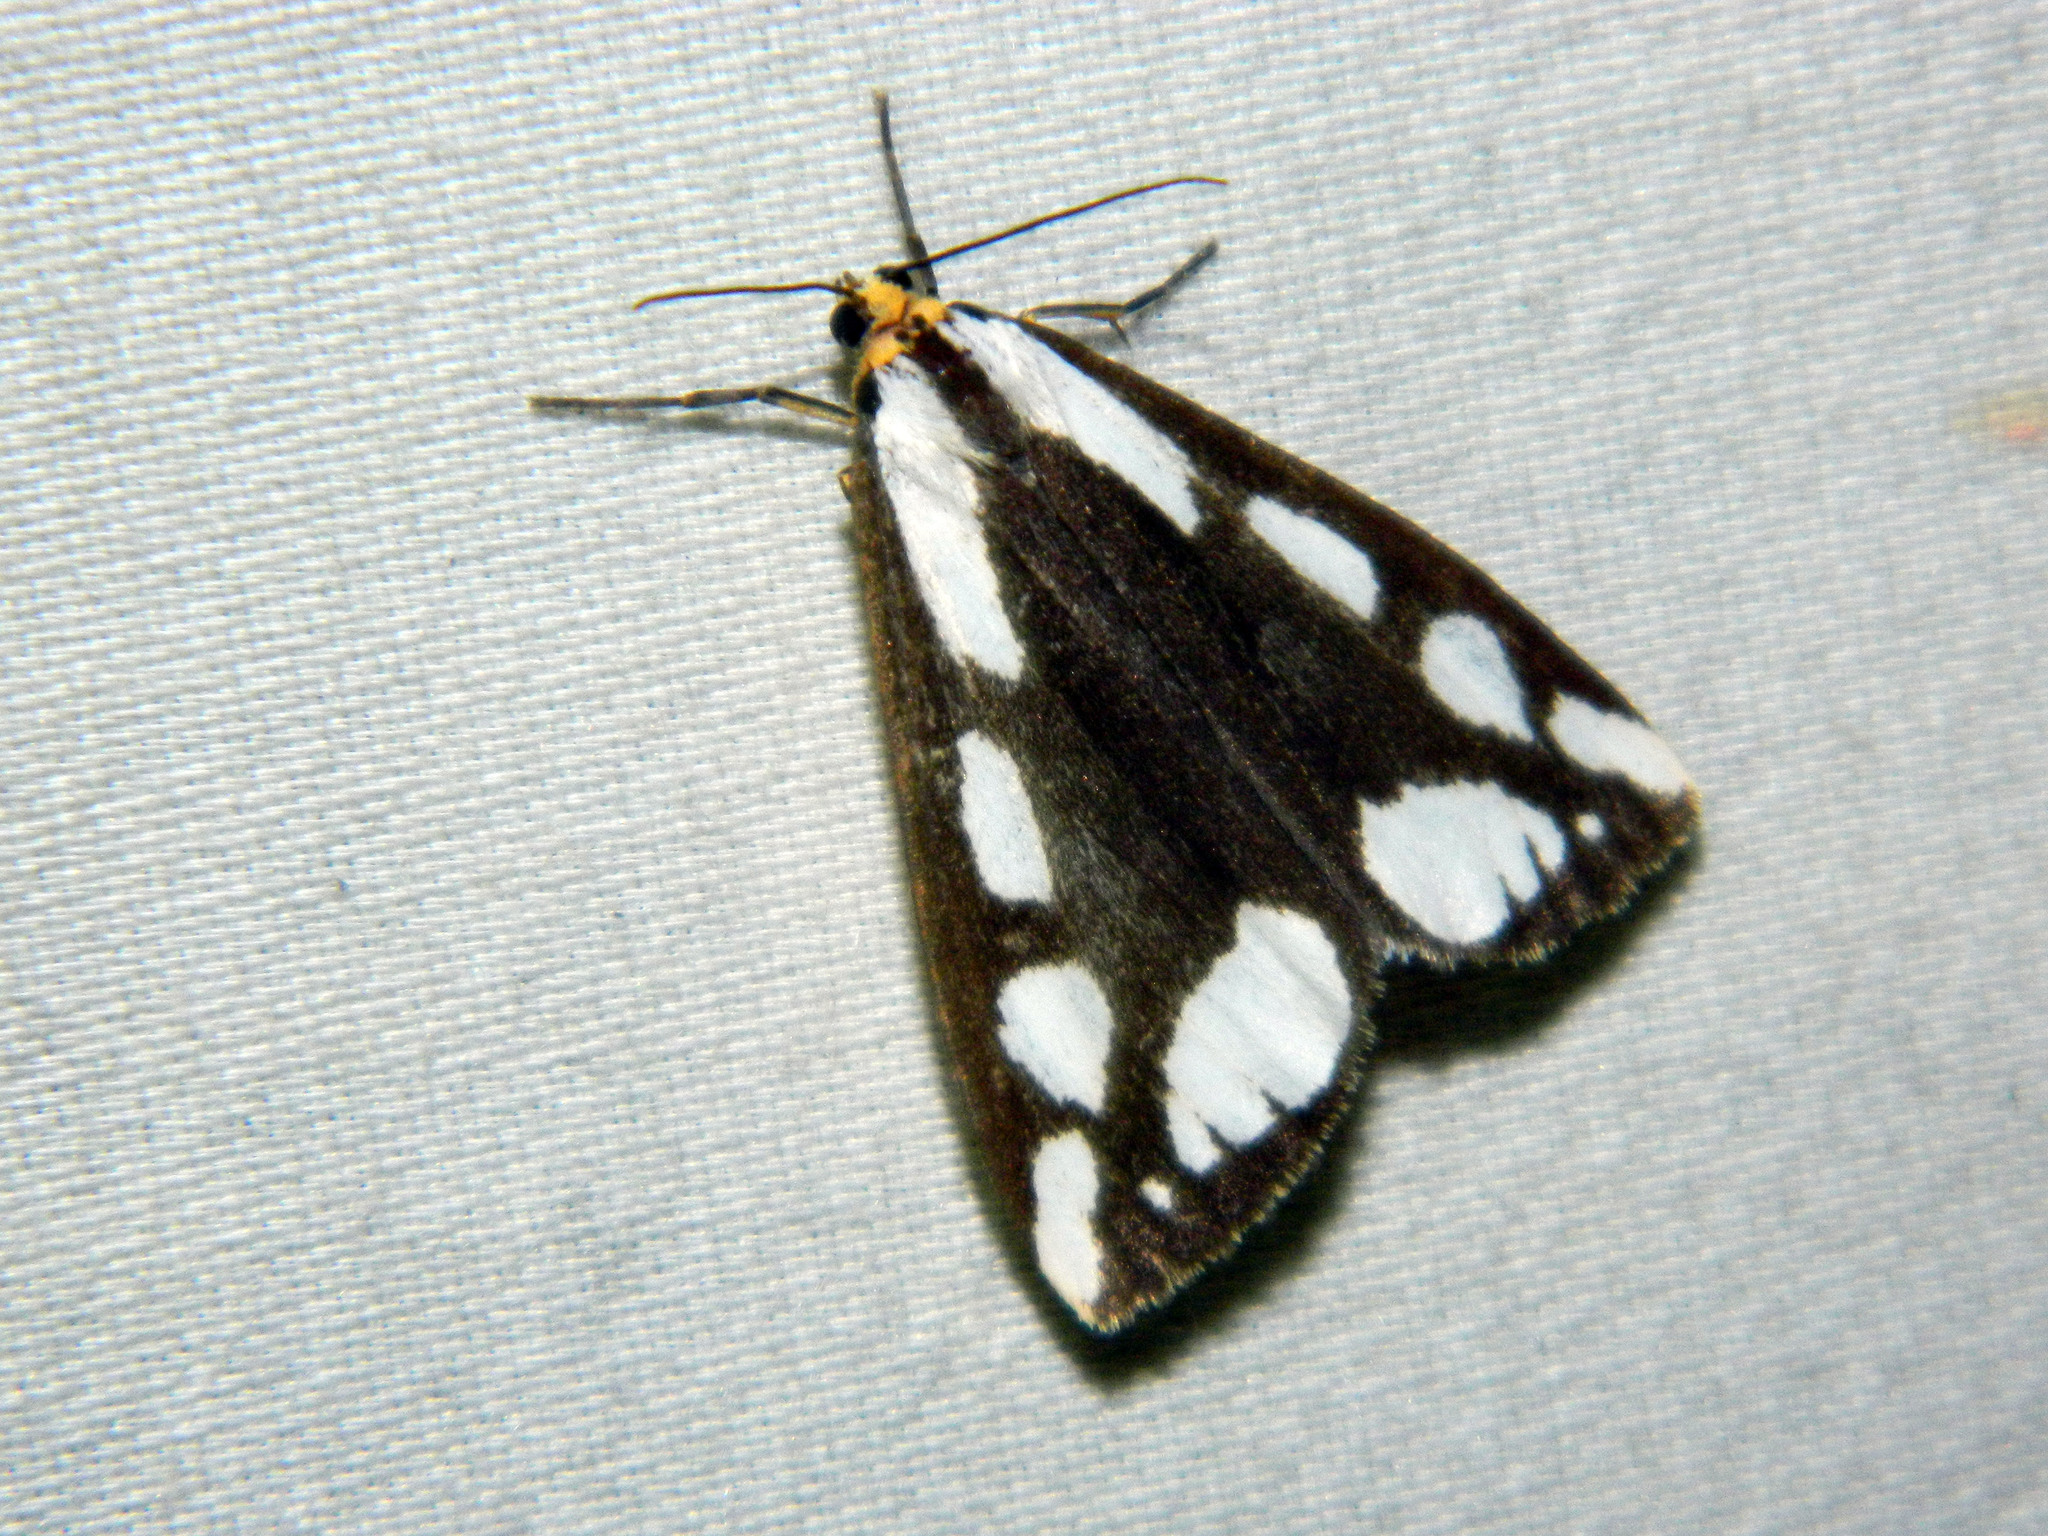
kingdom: Animalia
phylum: Arthropoda
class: Insecta
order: Lepidoptera
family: Erebidae
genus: Haploa
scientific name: Haploa lecontei
